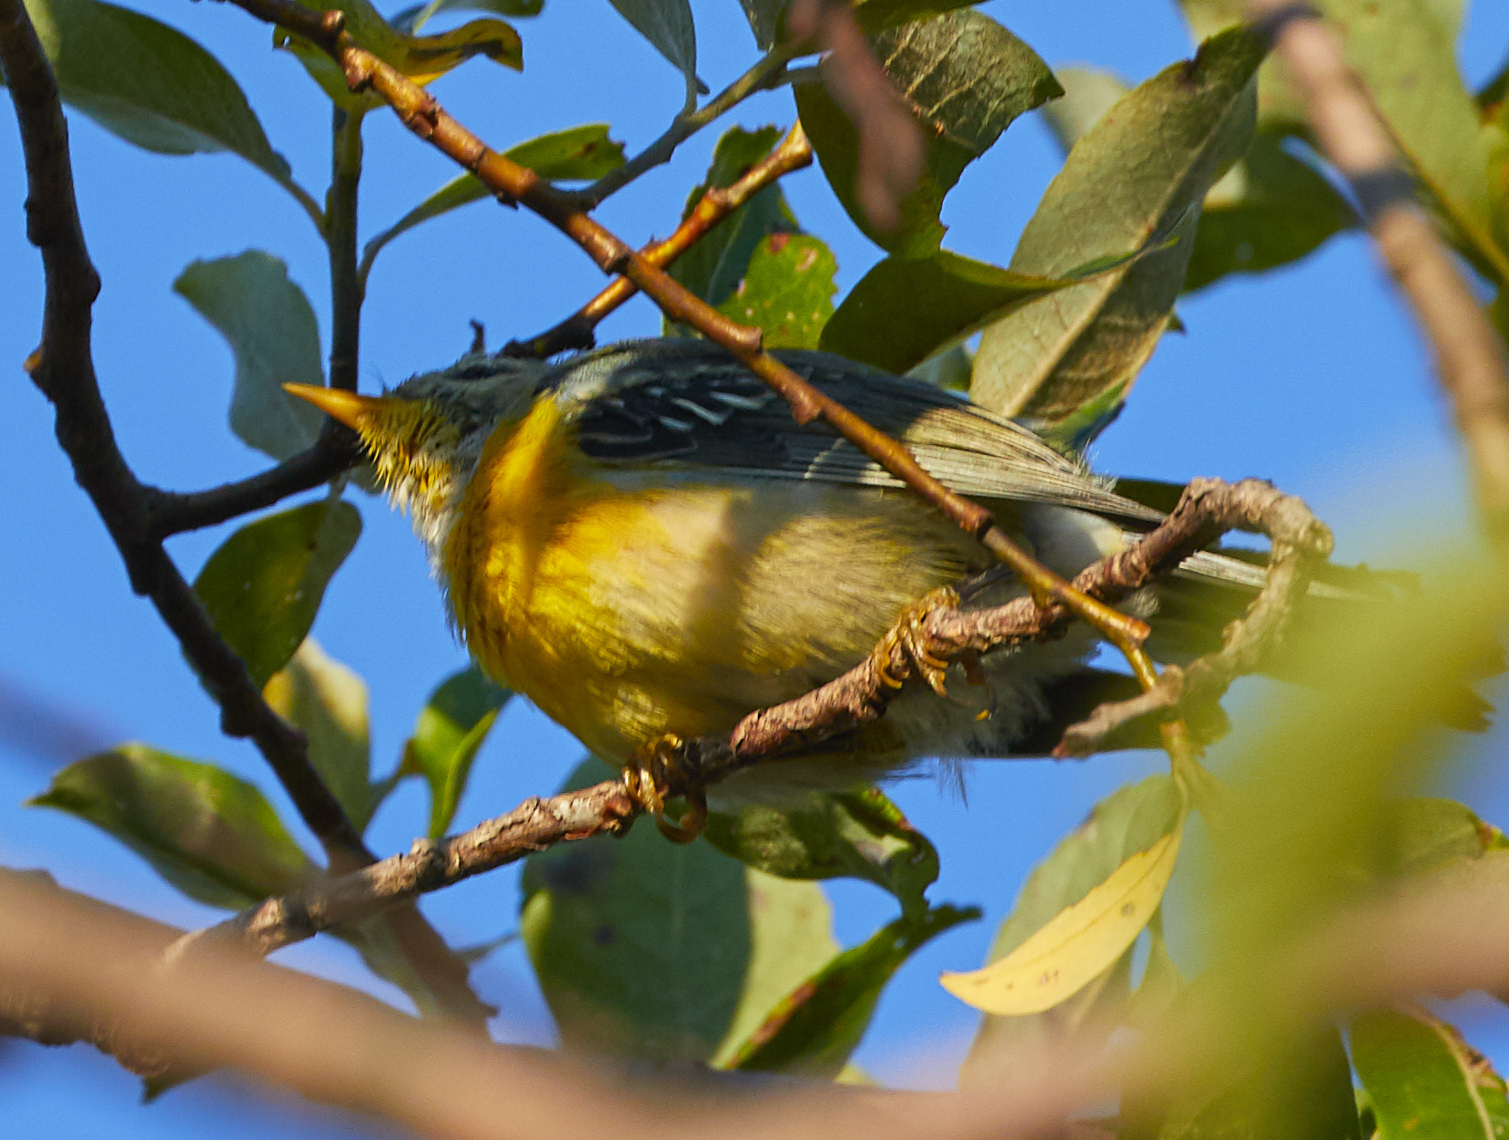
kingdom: Animalia
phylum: Chordata
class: Aves
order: Passeriformes
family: Parulidae
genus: Setophaga
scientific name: Setophaga americana
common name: Northern parula
